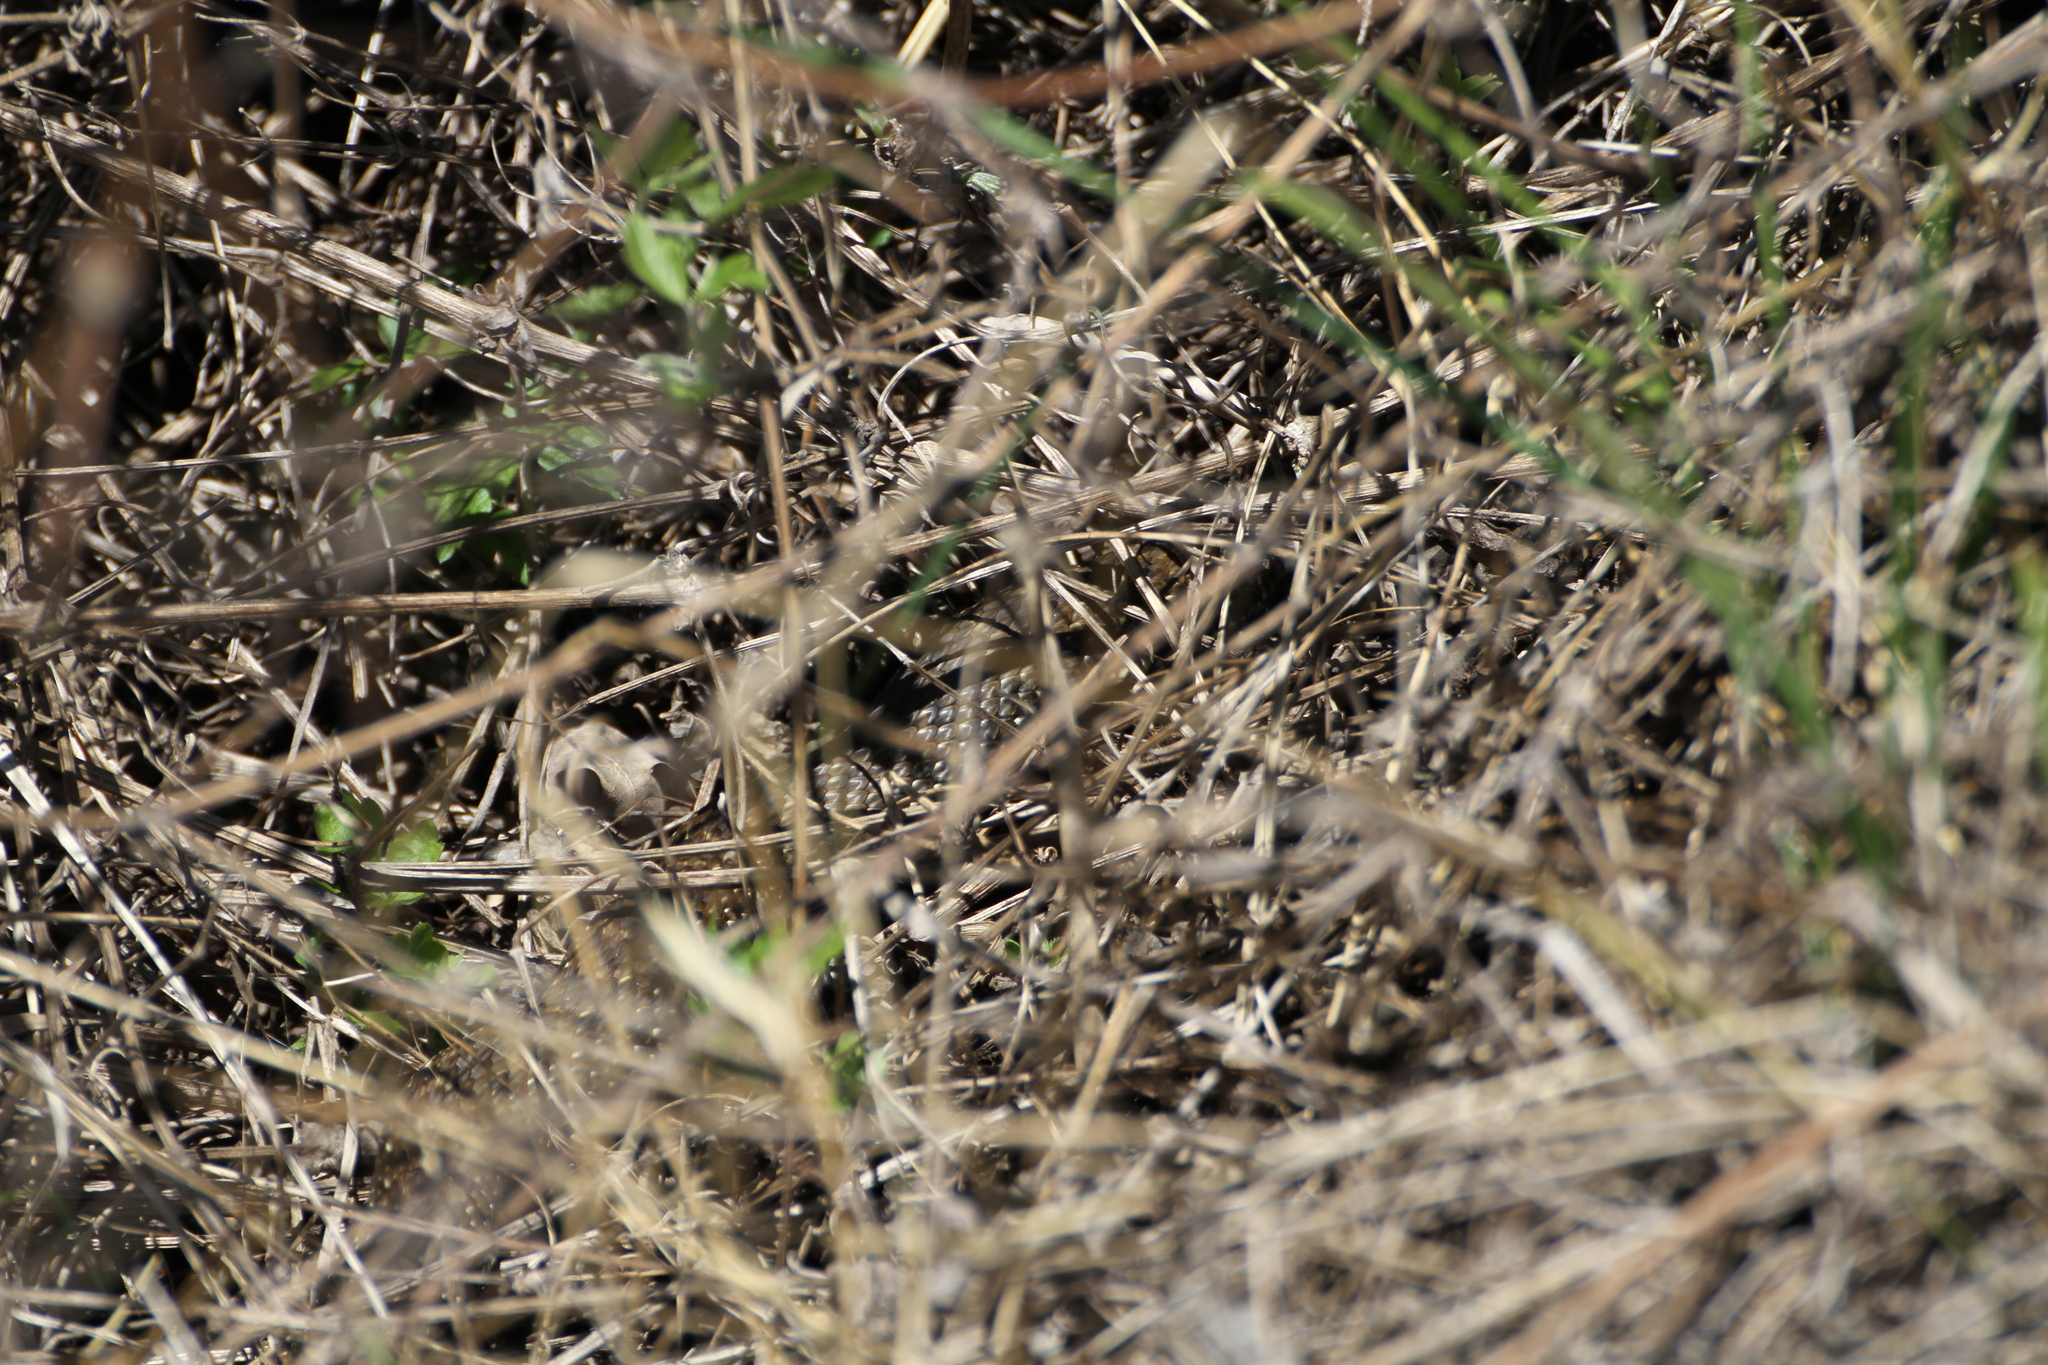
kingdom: Animalia
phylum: Chordata
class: Squamata
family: Psammophiidae
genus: Malpolon
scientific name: Malpolon monspessulanus
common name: Montpellier snake
